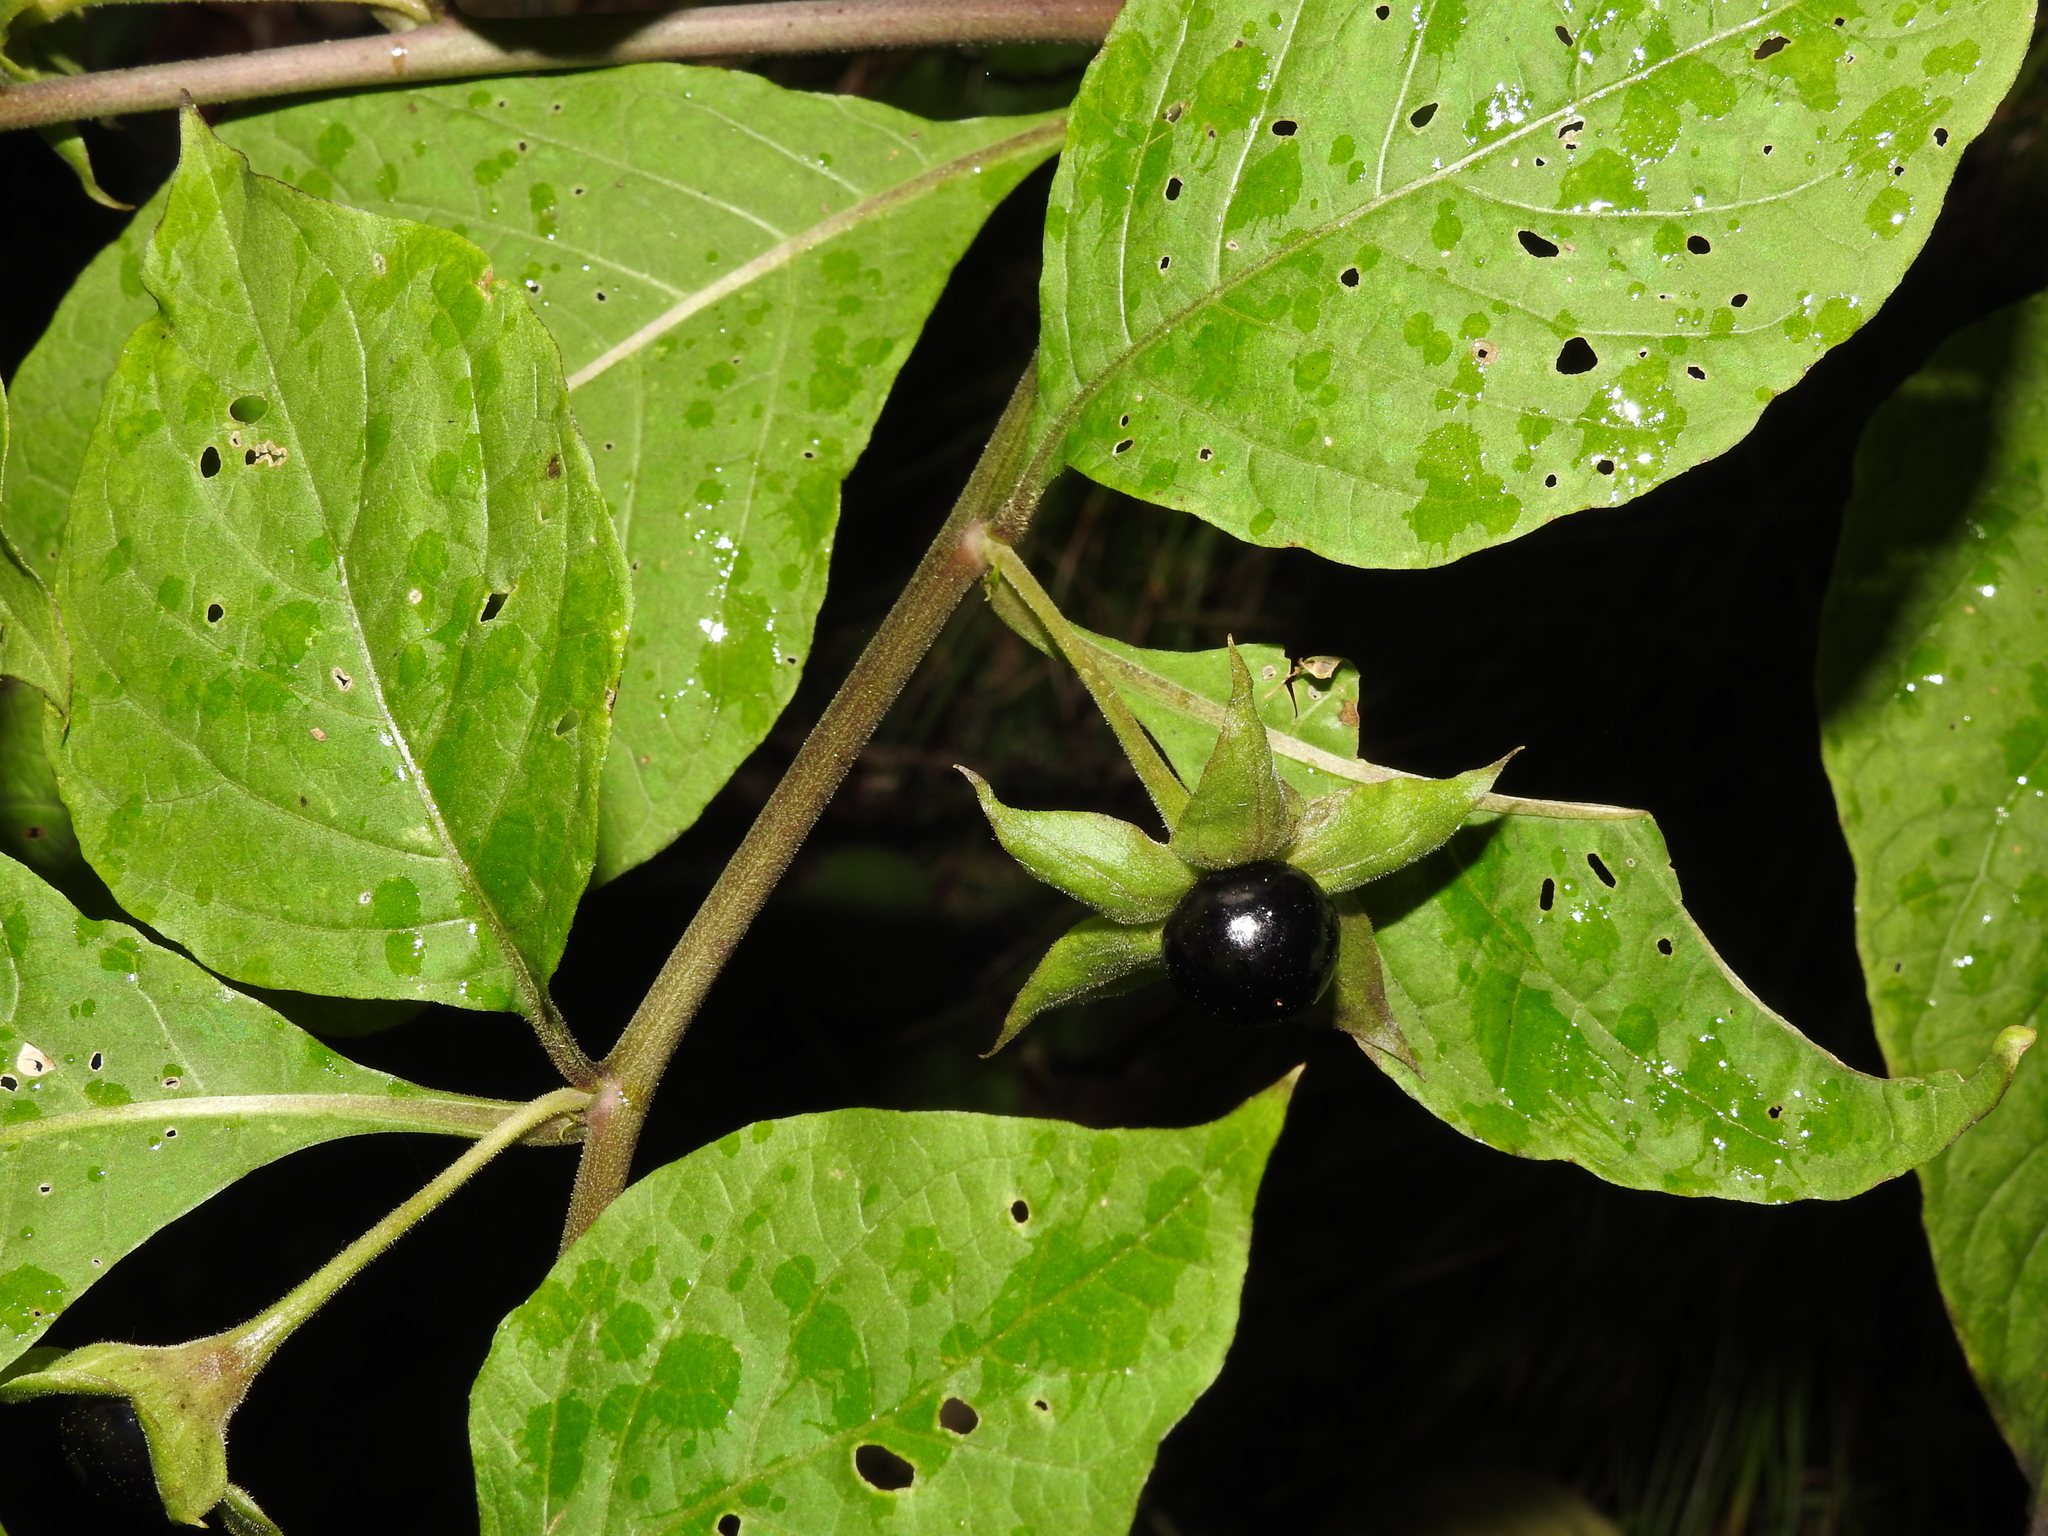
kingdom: Plantae
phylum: Tracheophyta
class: Magnoliopsida
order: Solanales
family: Solanaceae
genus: Atropa
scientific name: Atropa belladonna
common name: Deadly nightshade
